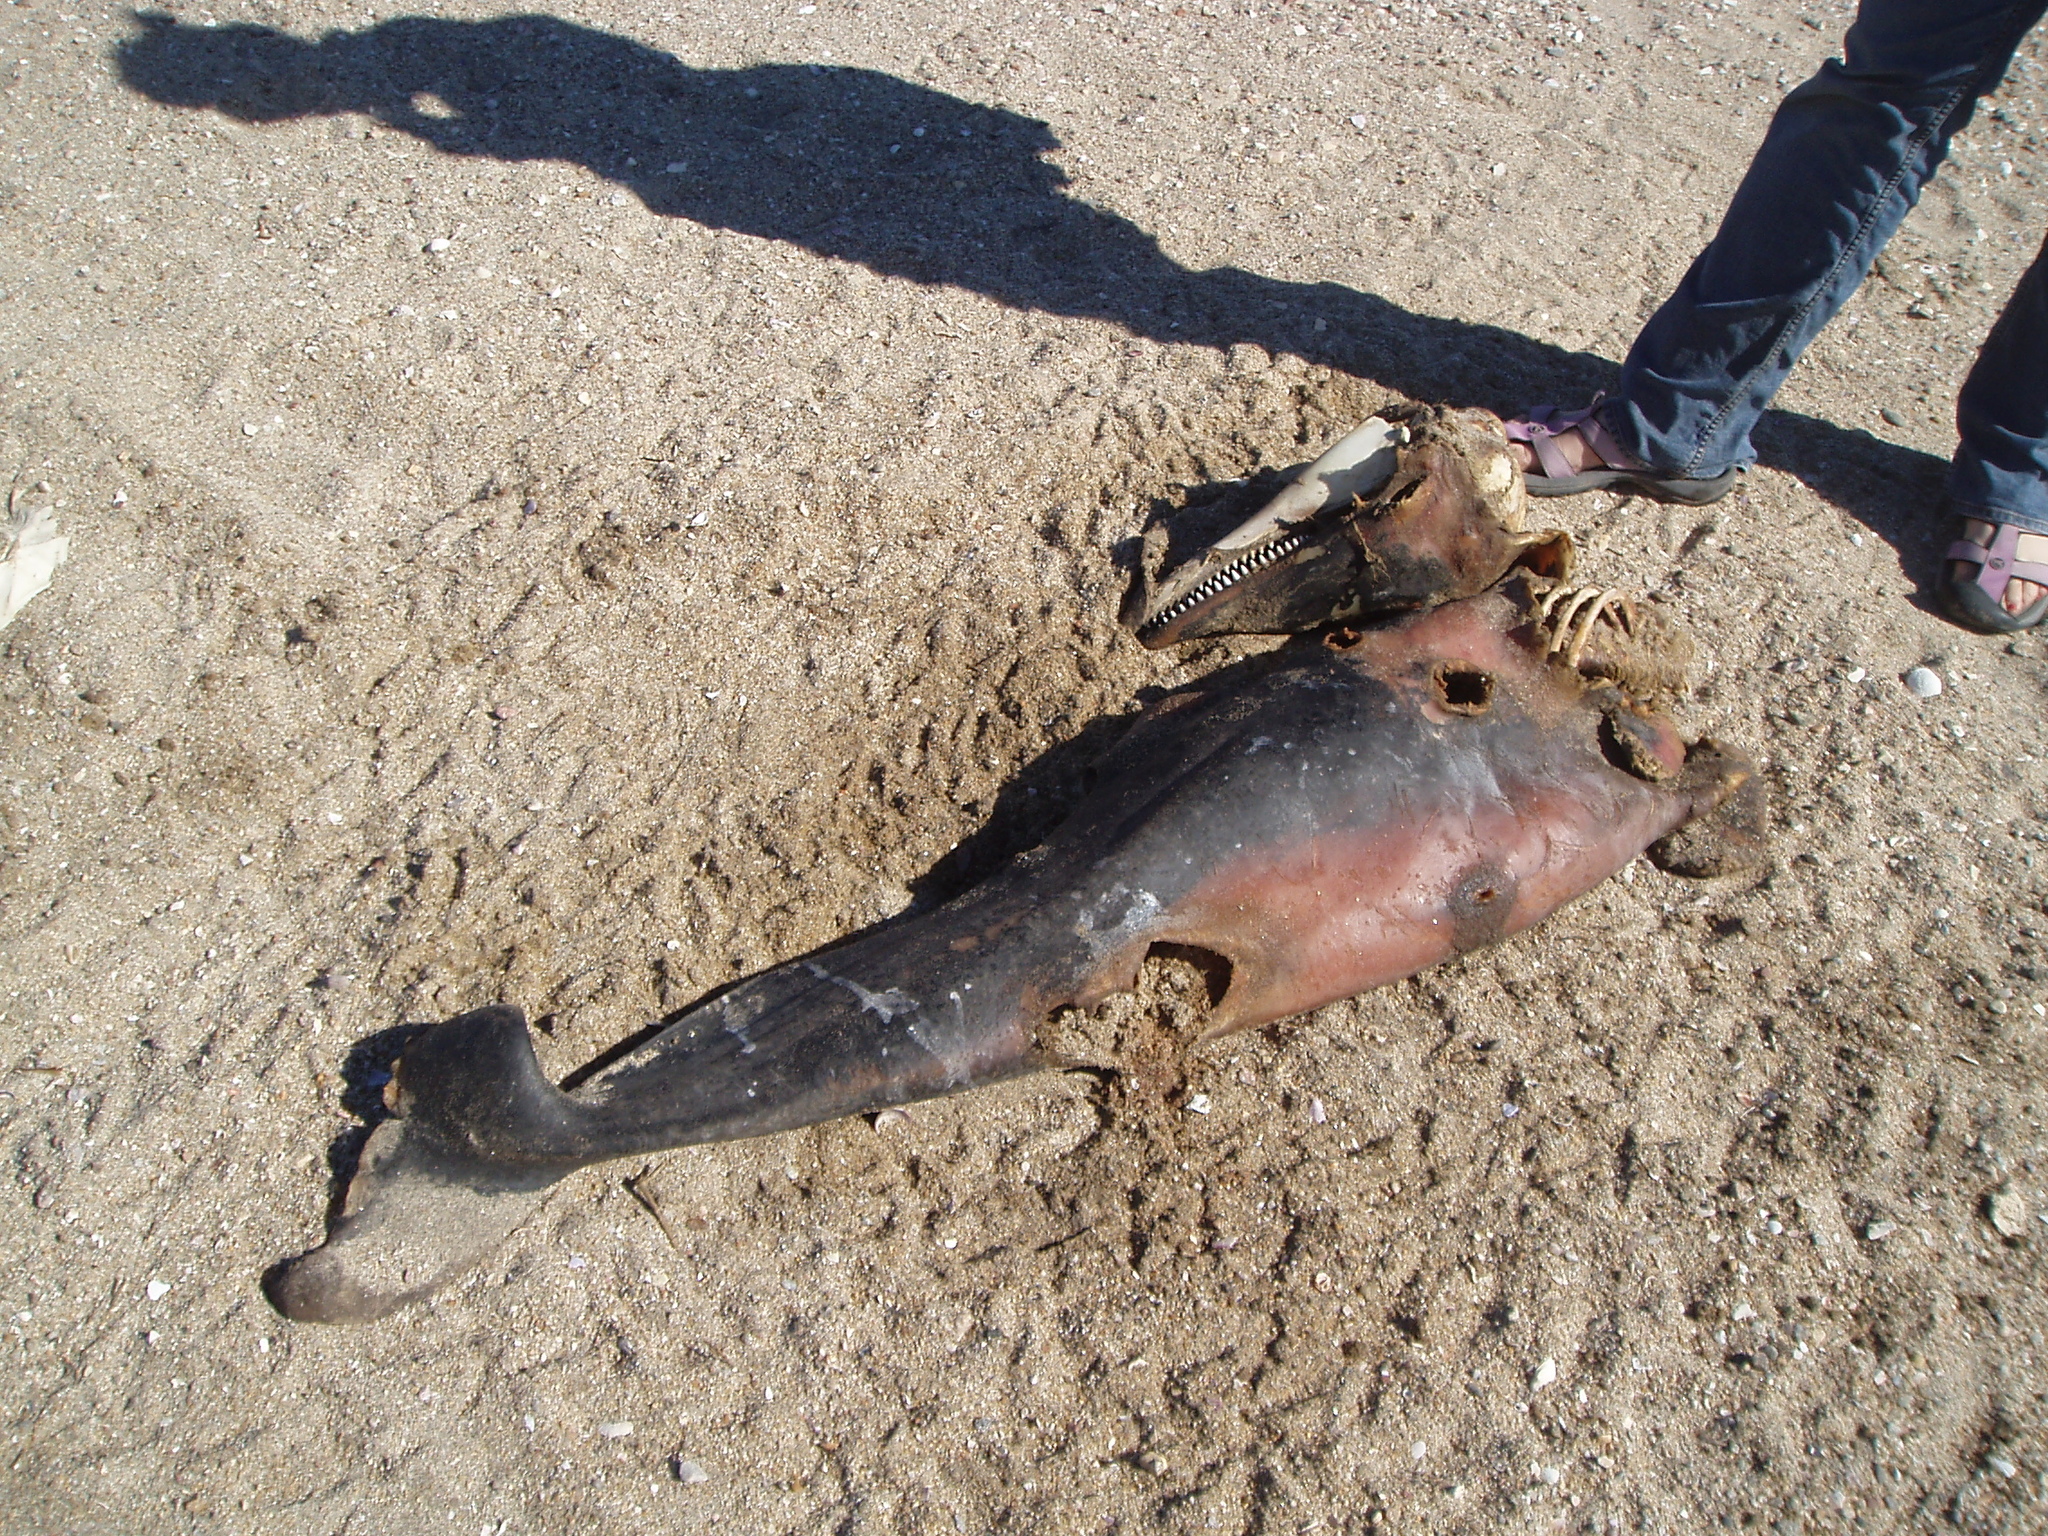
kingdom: Animalia
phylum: Chordata
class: Mammalia
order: Cetacea
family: Delphinidae
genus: Tursiops
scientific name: Tursiops truncatus
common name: Bottlenose dolphin
